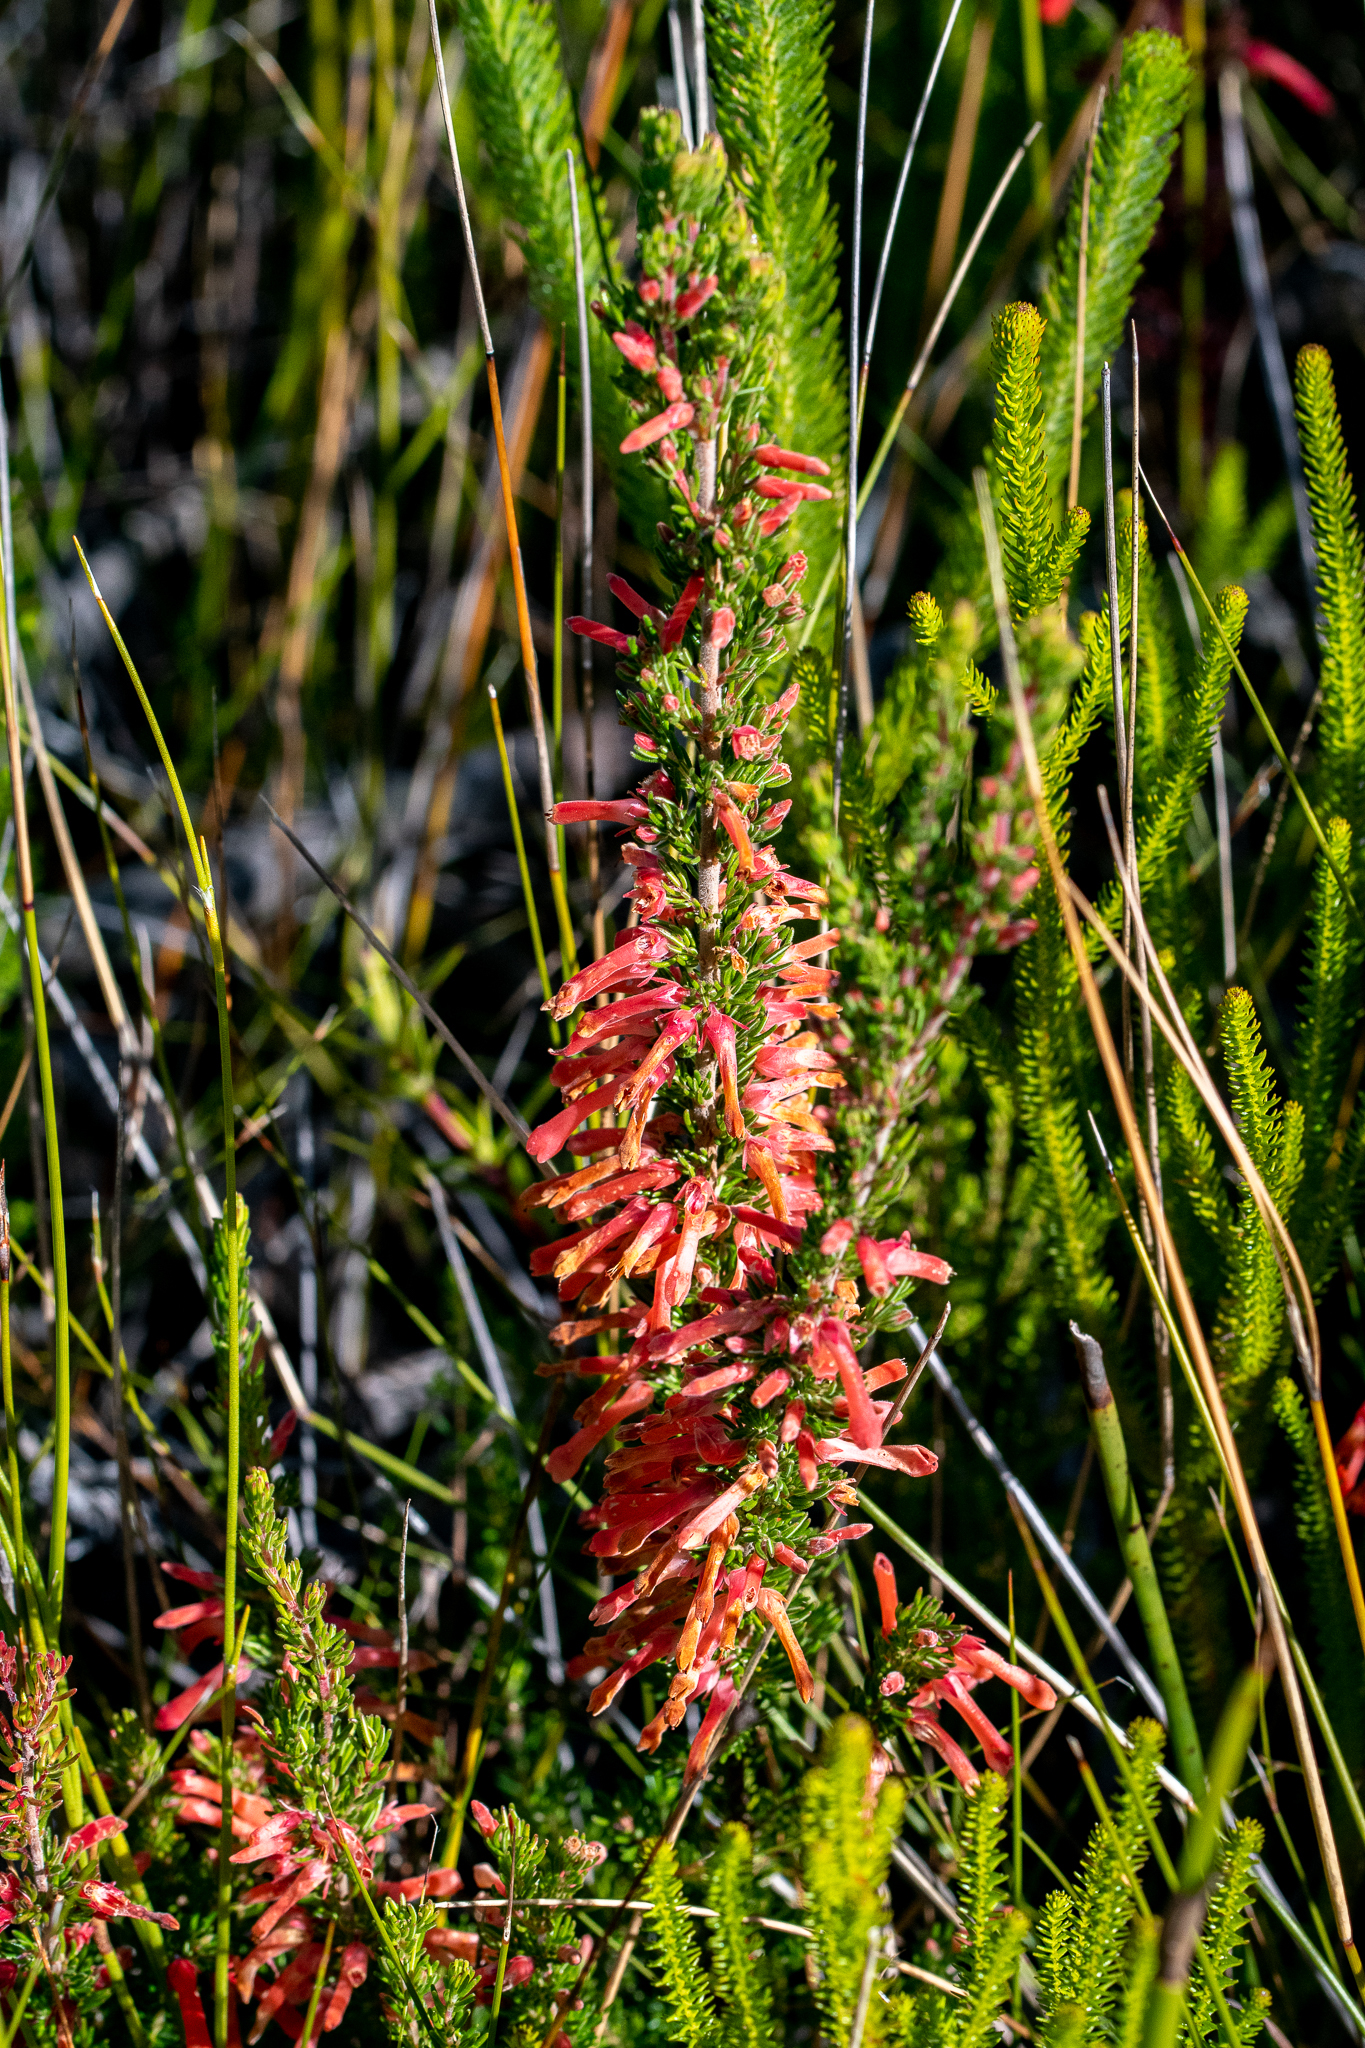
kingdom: Plantae
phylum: Tracheophyta
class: Magnoliopsida
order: Ericales
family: Ericaceae
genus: Erica
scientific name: Erica pillansii
